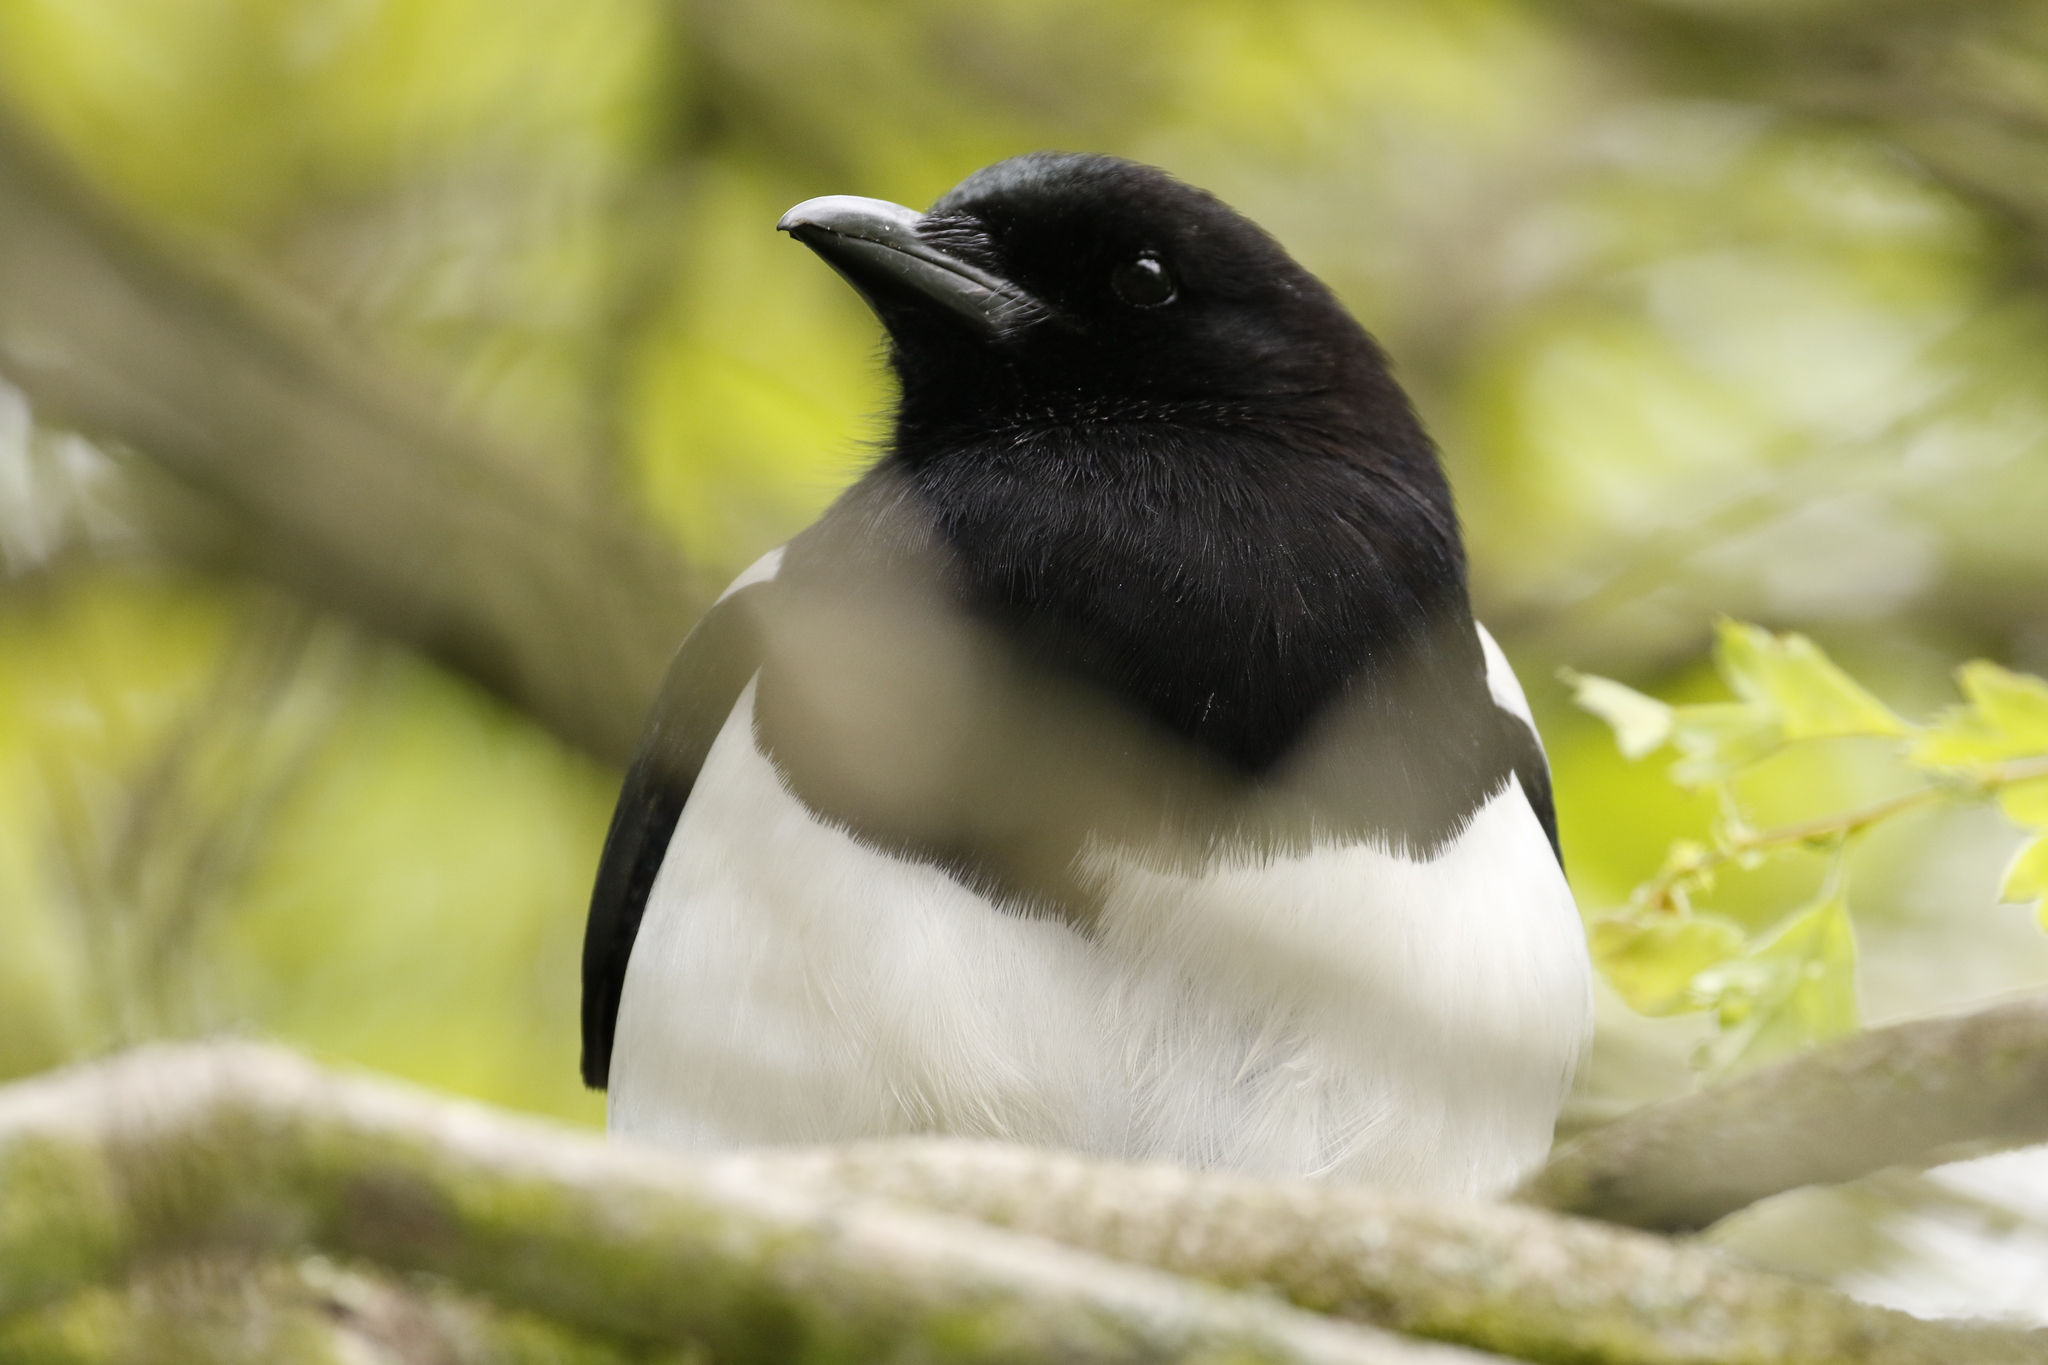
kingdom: Animalia
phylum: Chordata
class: Aves
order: Passeriformes
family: Corvidae
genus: Pica
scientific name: Pica pica
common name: Eurasian magpie
